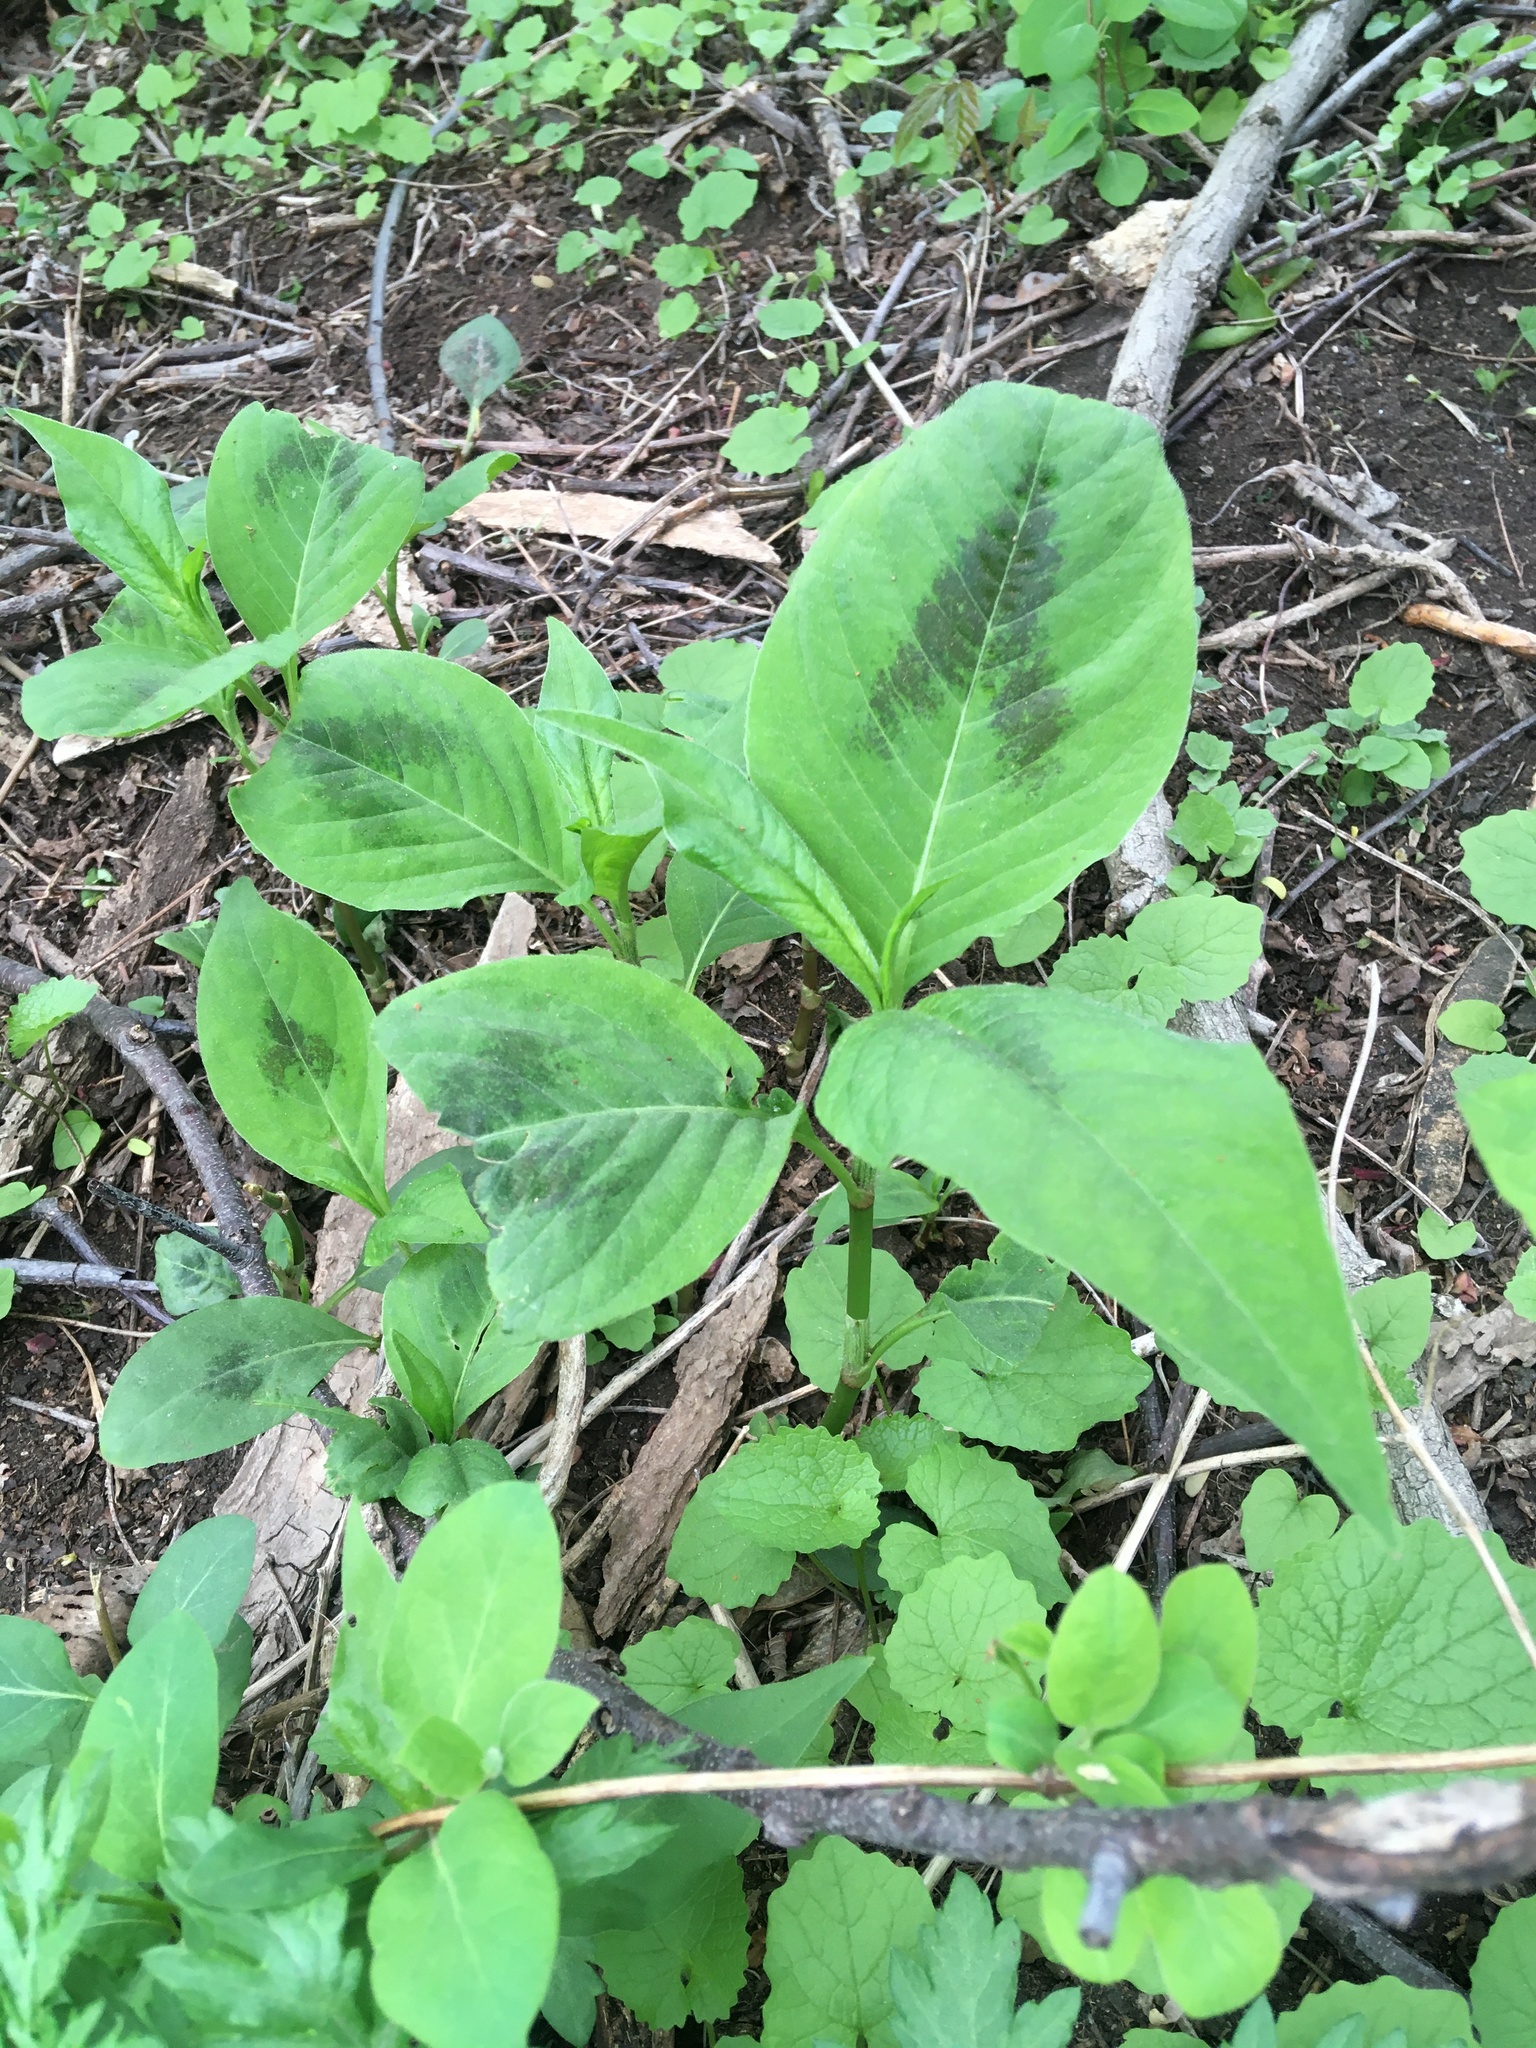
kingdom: Plantae
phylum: Tracheophyta
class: Magnoliopsida
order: Caryophyllales
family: Polygonaceae
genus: Persicaria
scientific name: Persicaria virginiana
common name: Jumpseed
